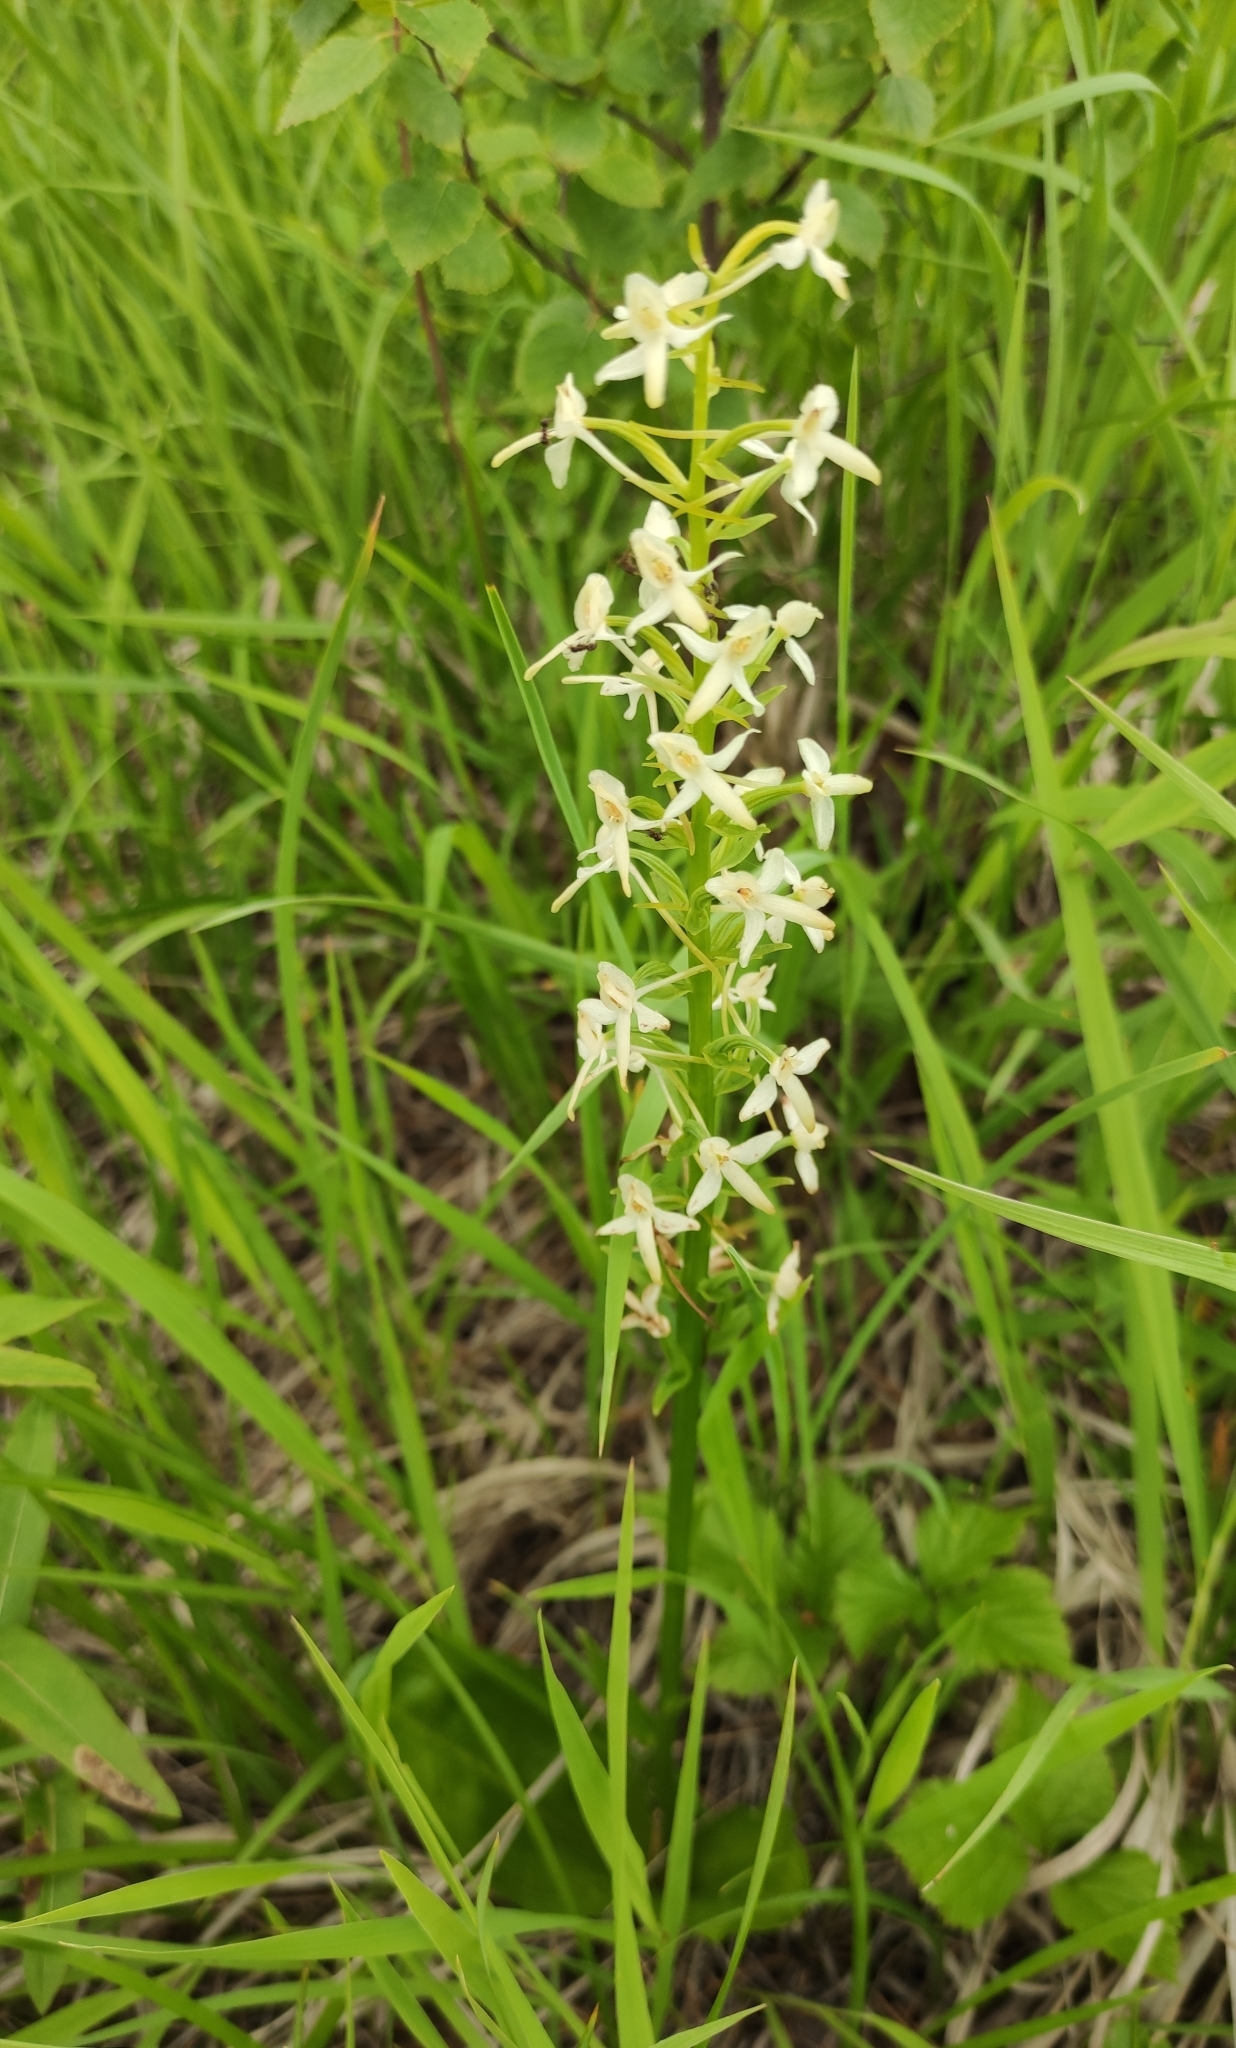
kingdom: Plantae
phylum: Tracheophyta
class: Liliopsida
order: Asparagales
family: Orchidaceae
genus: Platanthera
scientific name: Platanthera bifolia
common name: Lesser butterfly-orchid
